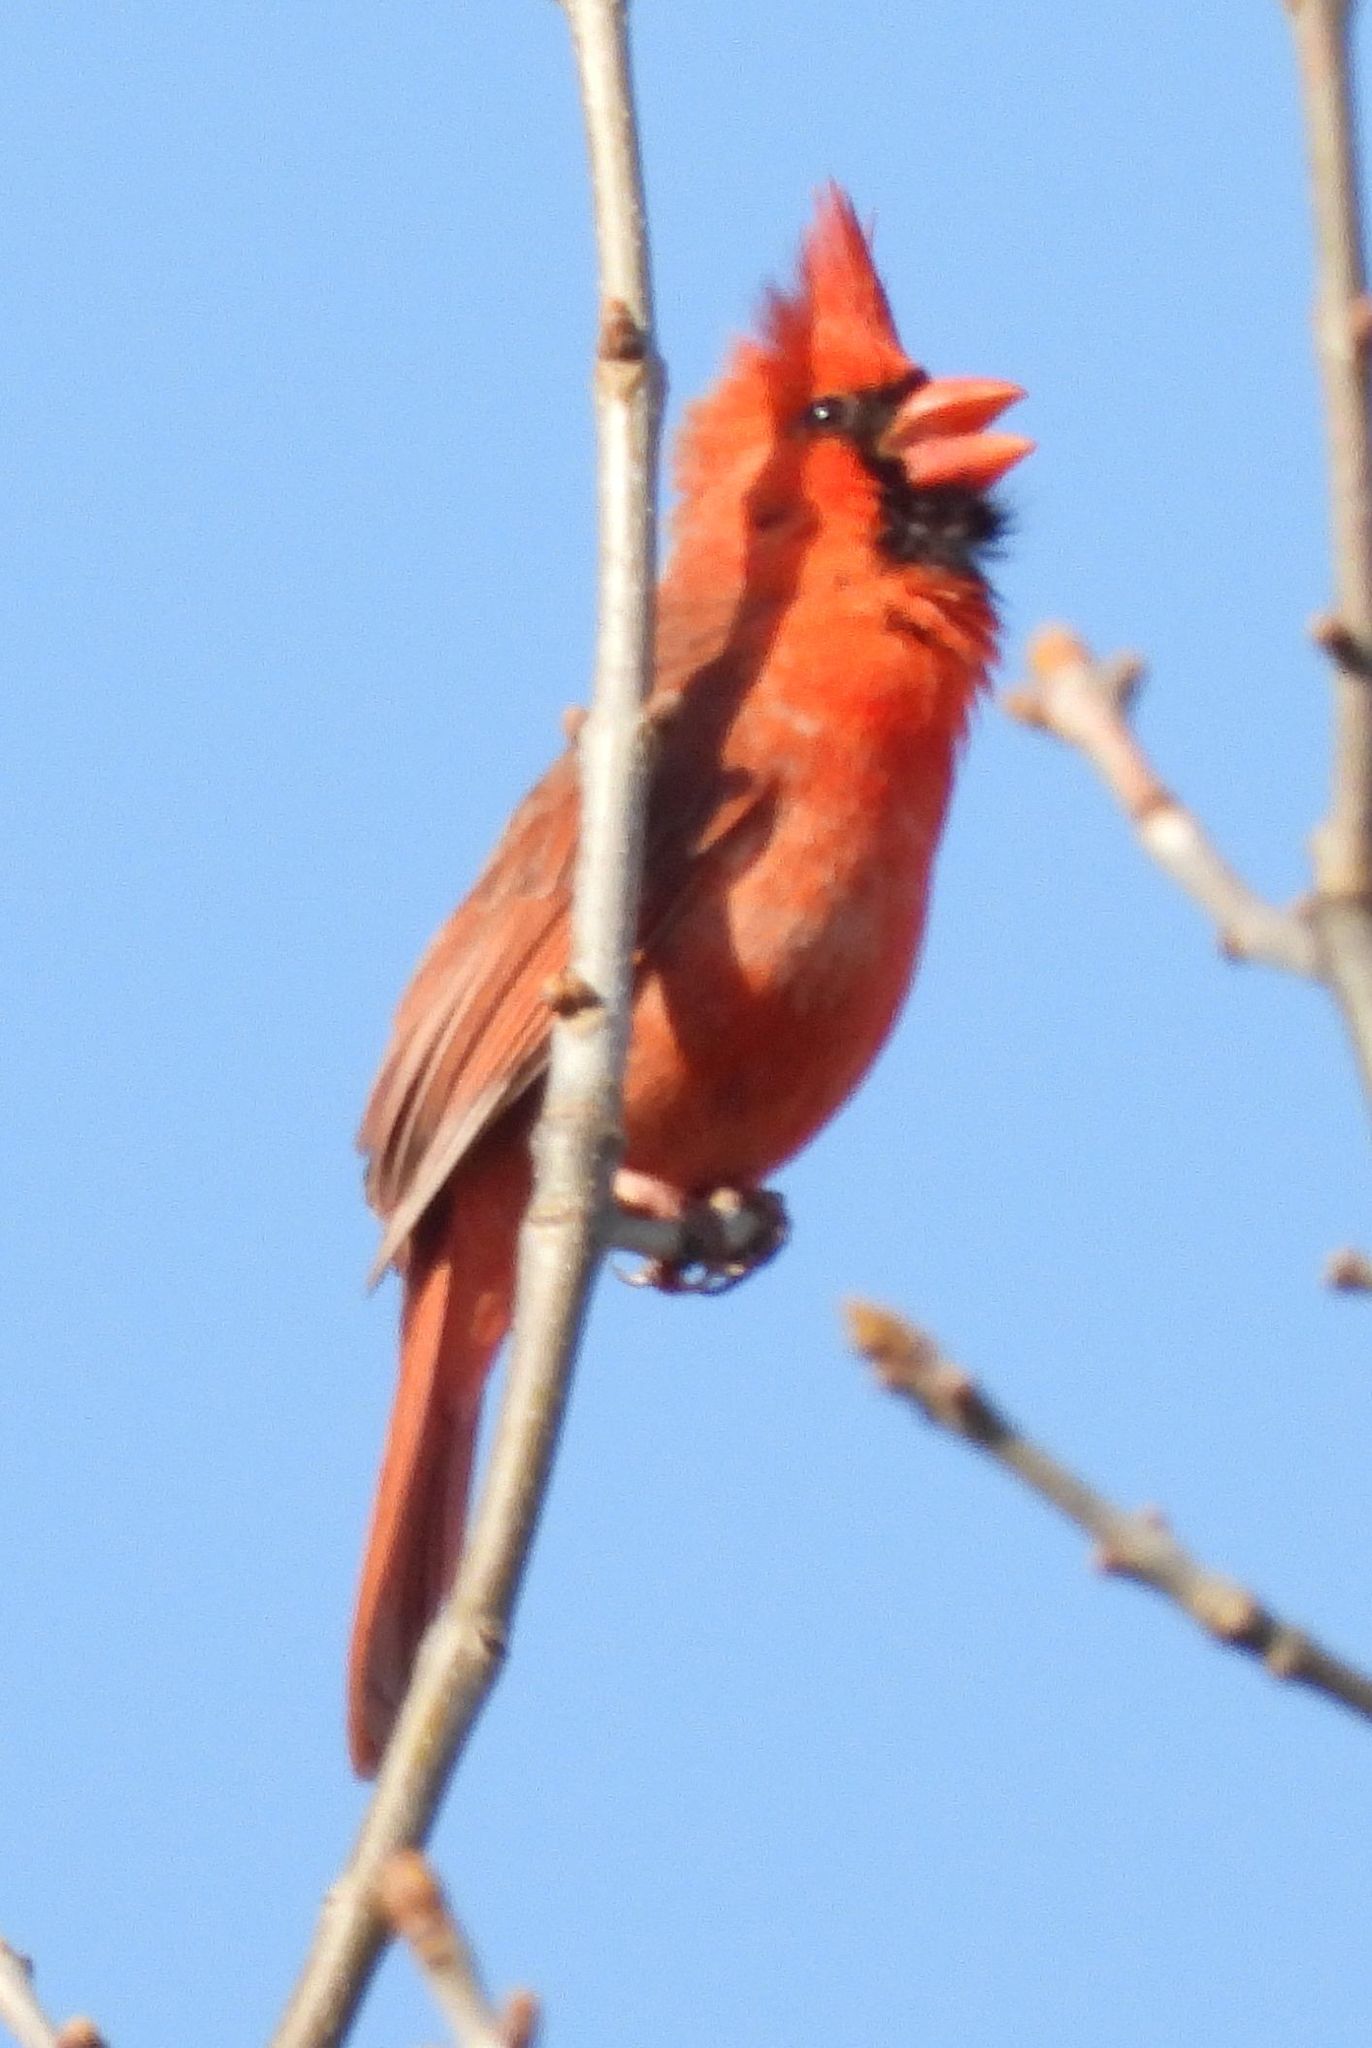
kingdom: Animalia
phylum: Chordata
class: Aves
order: Passeriformes
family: Cardinalidae
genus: Cardinalis
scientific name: Cardinalis cardinalis
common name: Northern cardinal
